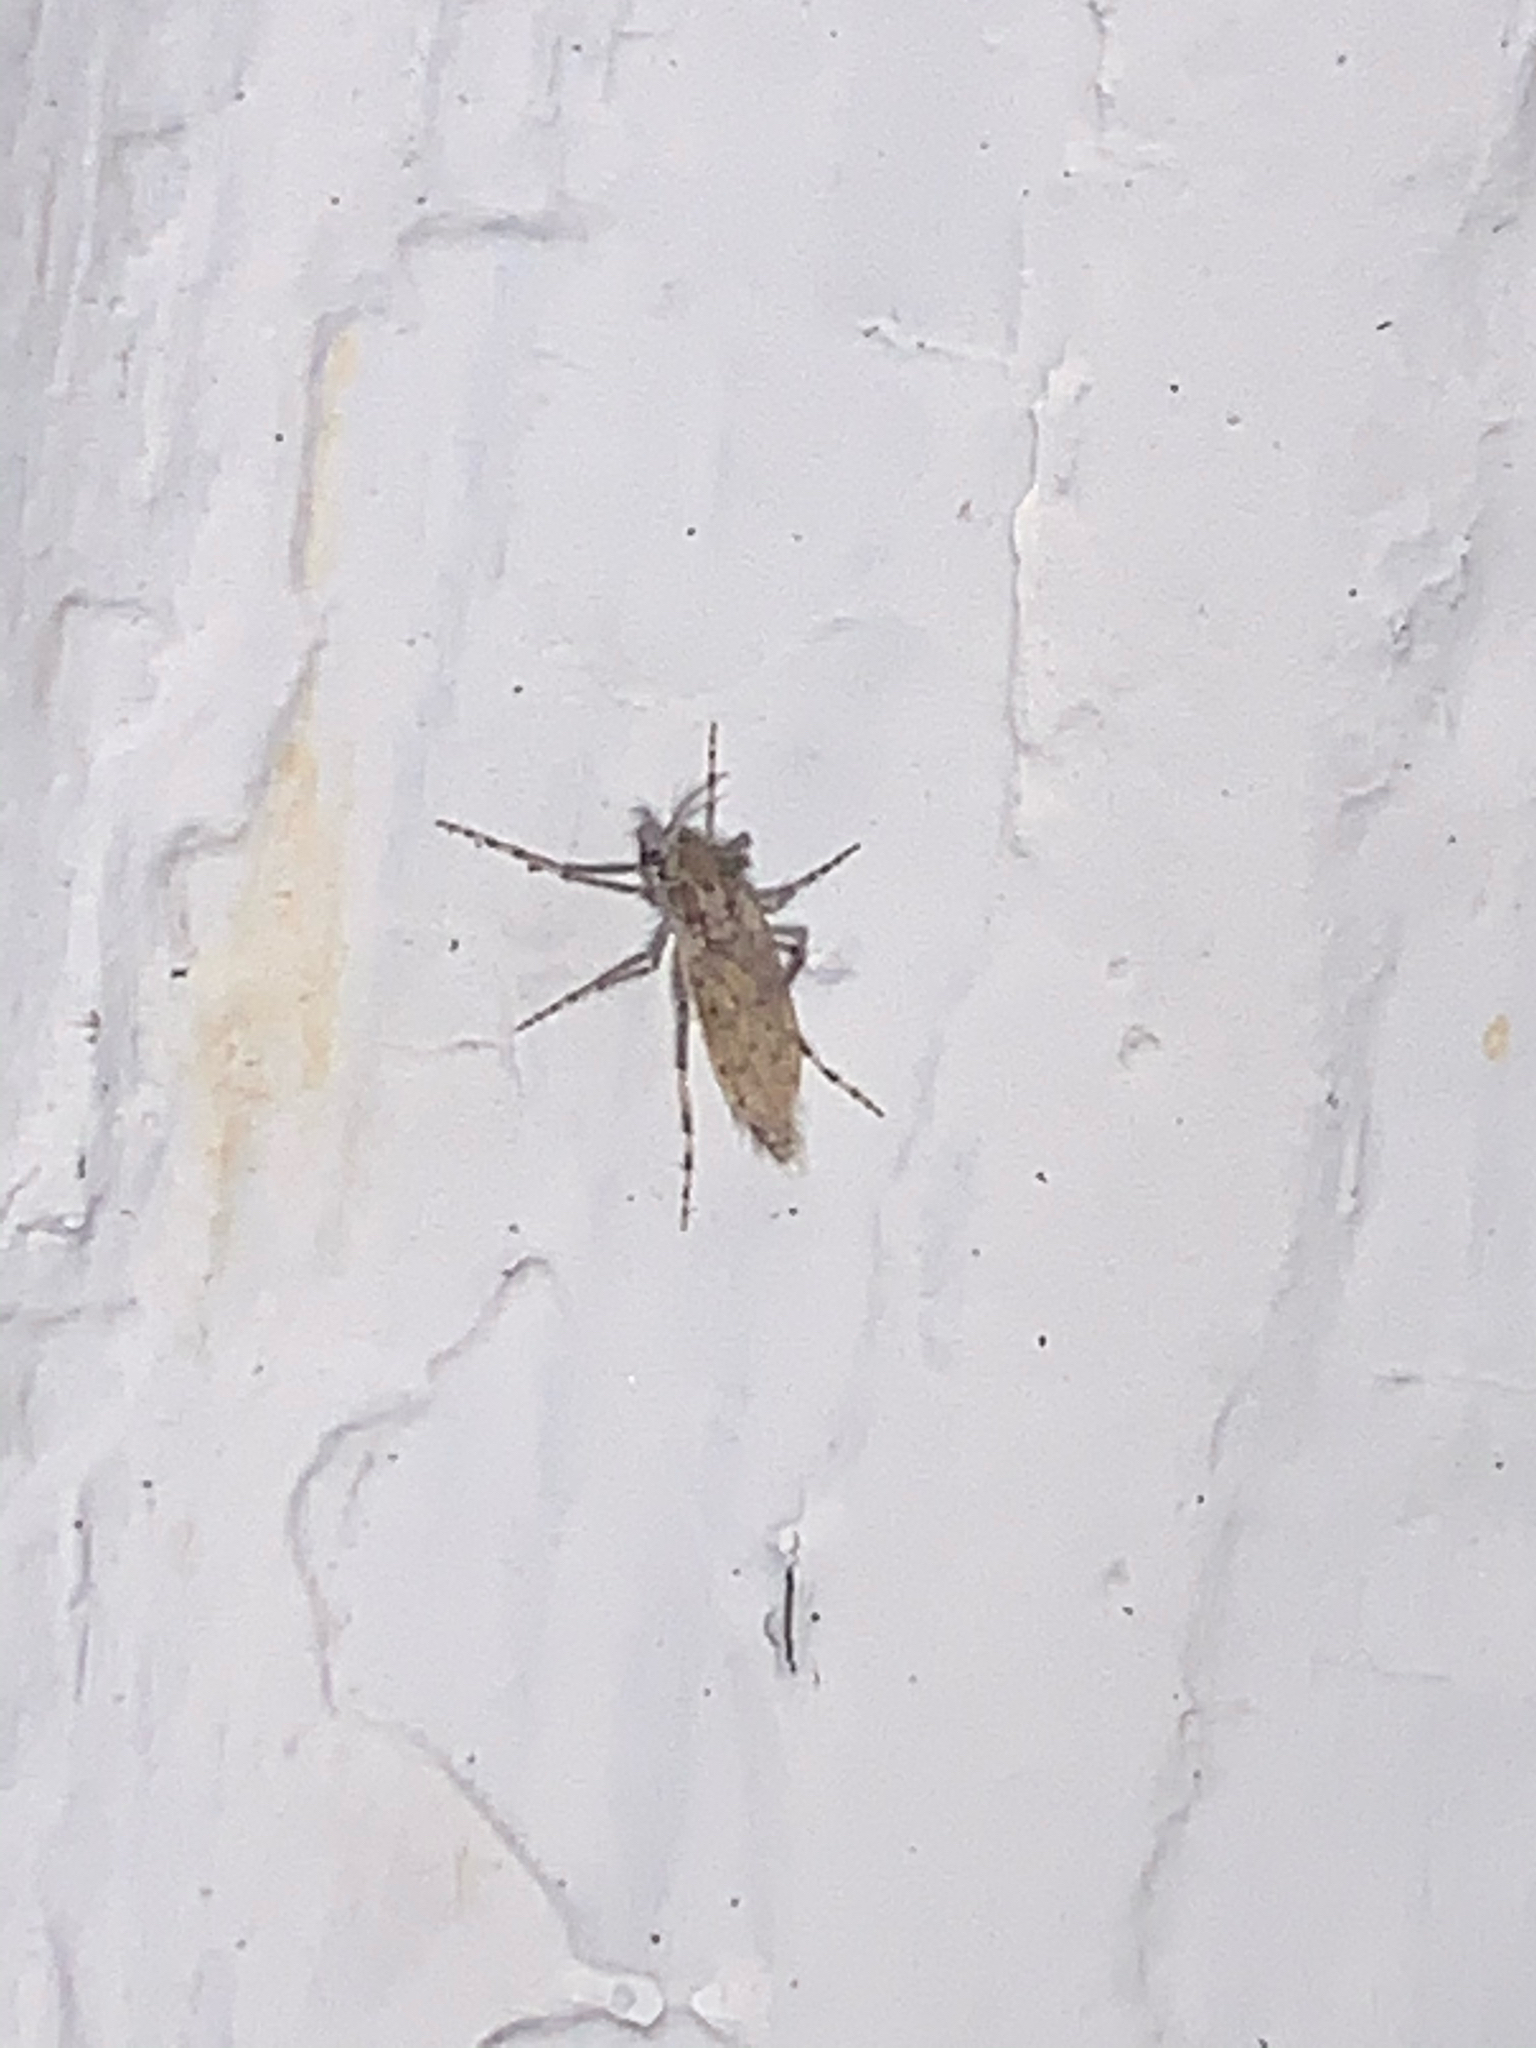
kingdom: Animalia
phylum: Arthropoda
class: Insecta
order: Diptera
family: Chaoboridae
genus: Chaoborus
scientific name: Chaoborus punctipennis
